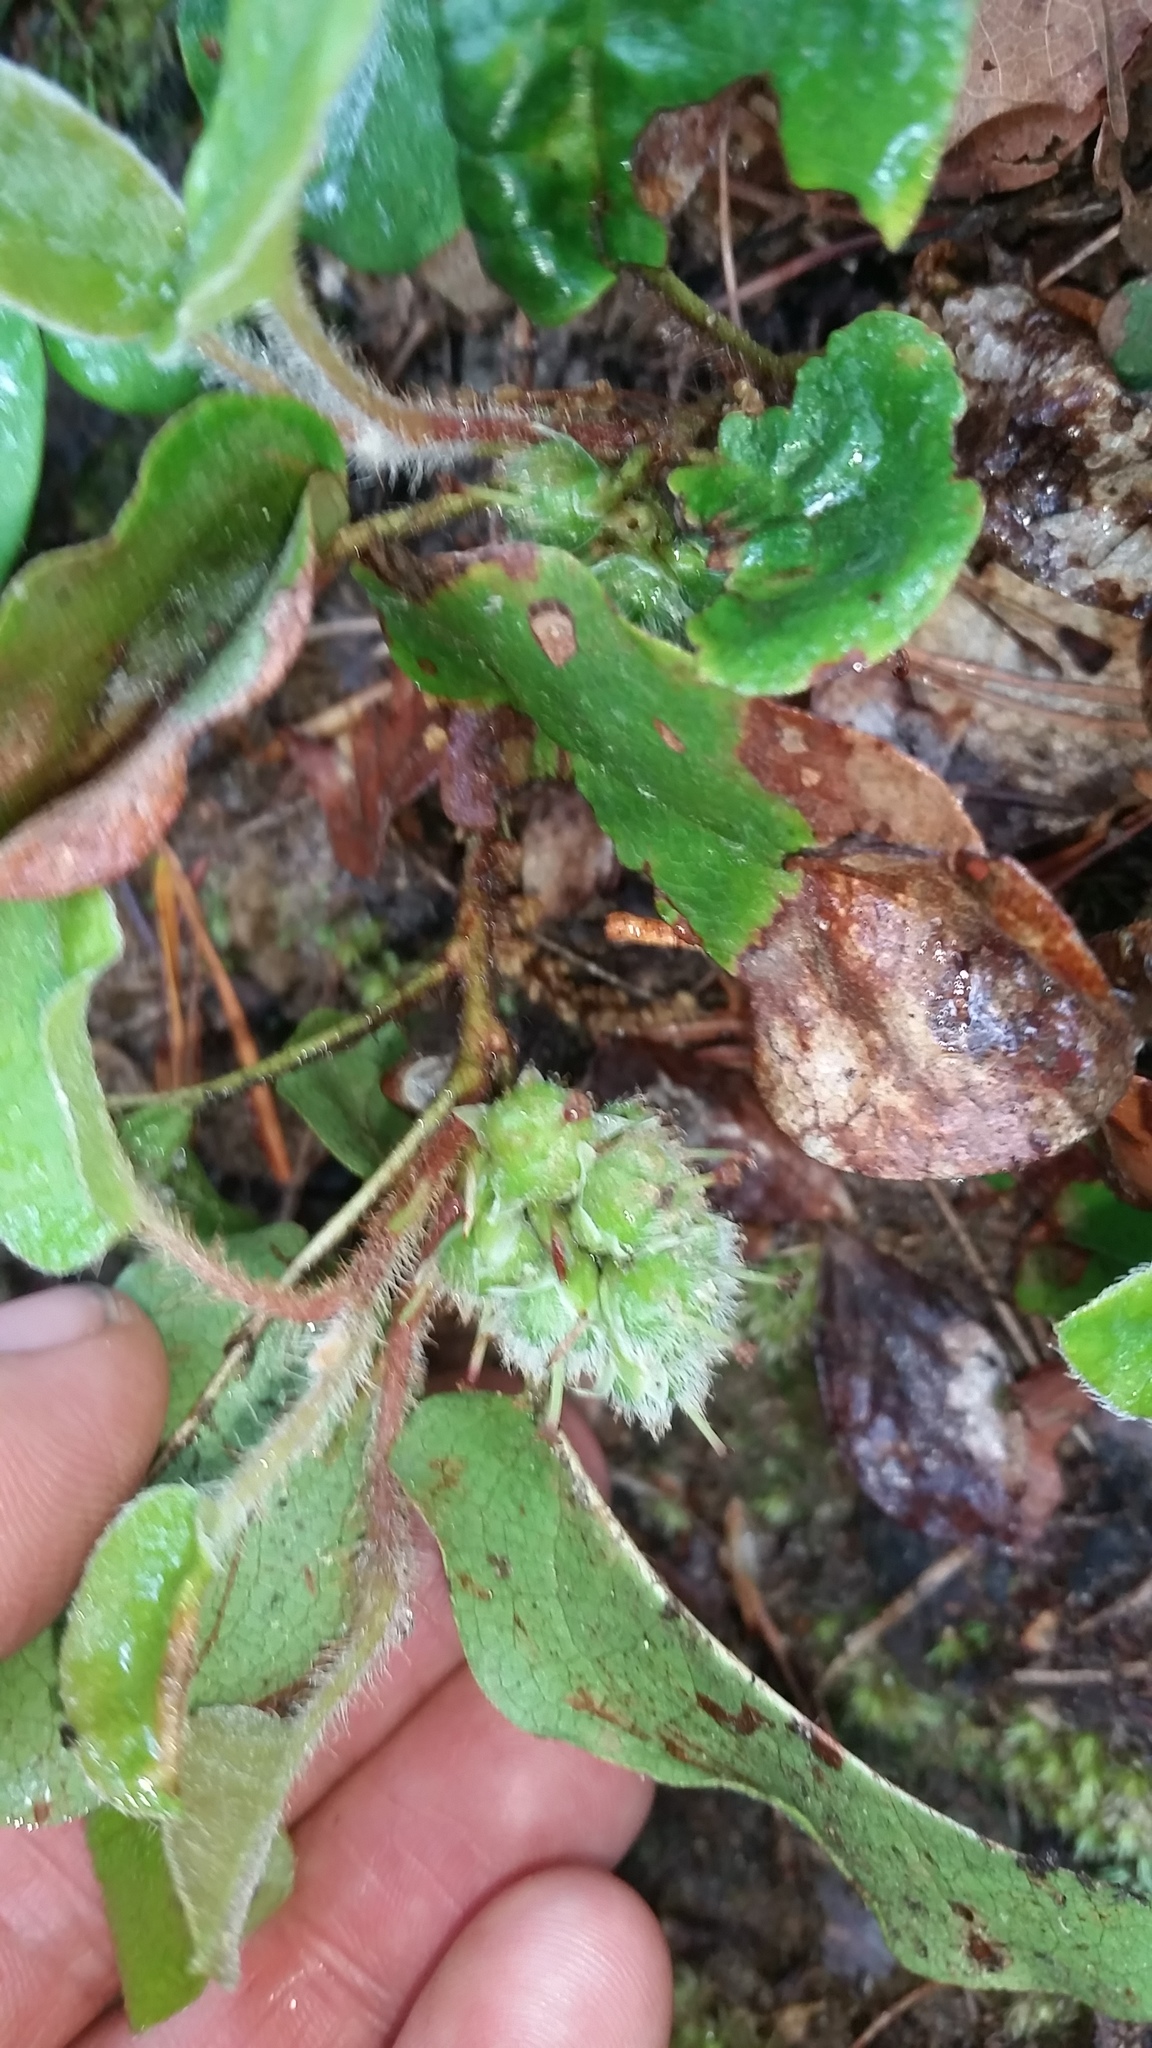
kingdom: Plantae
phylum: Tracheophyta
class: Magnoliopsida
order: Ericales
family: Ericaceae
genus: Epigaea
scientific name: Epigaea repens
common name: Gravelroot
